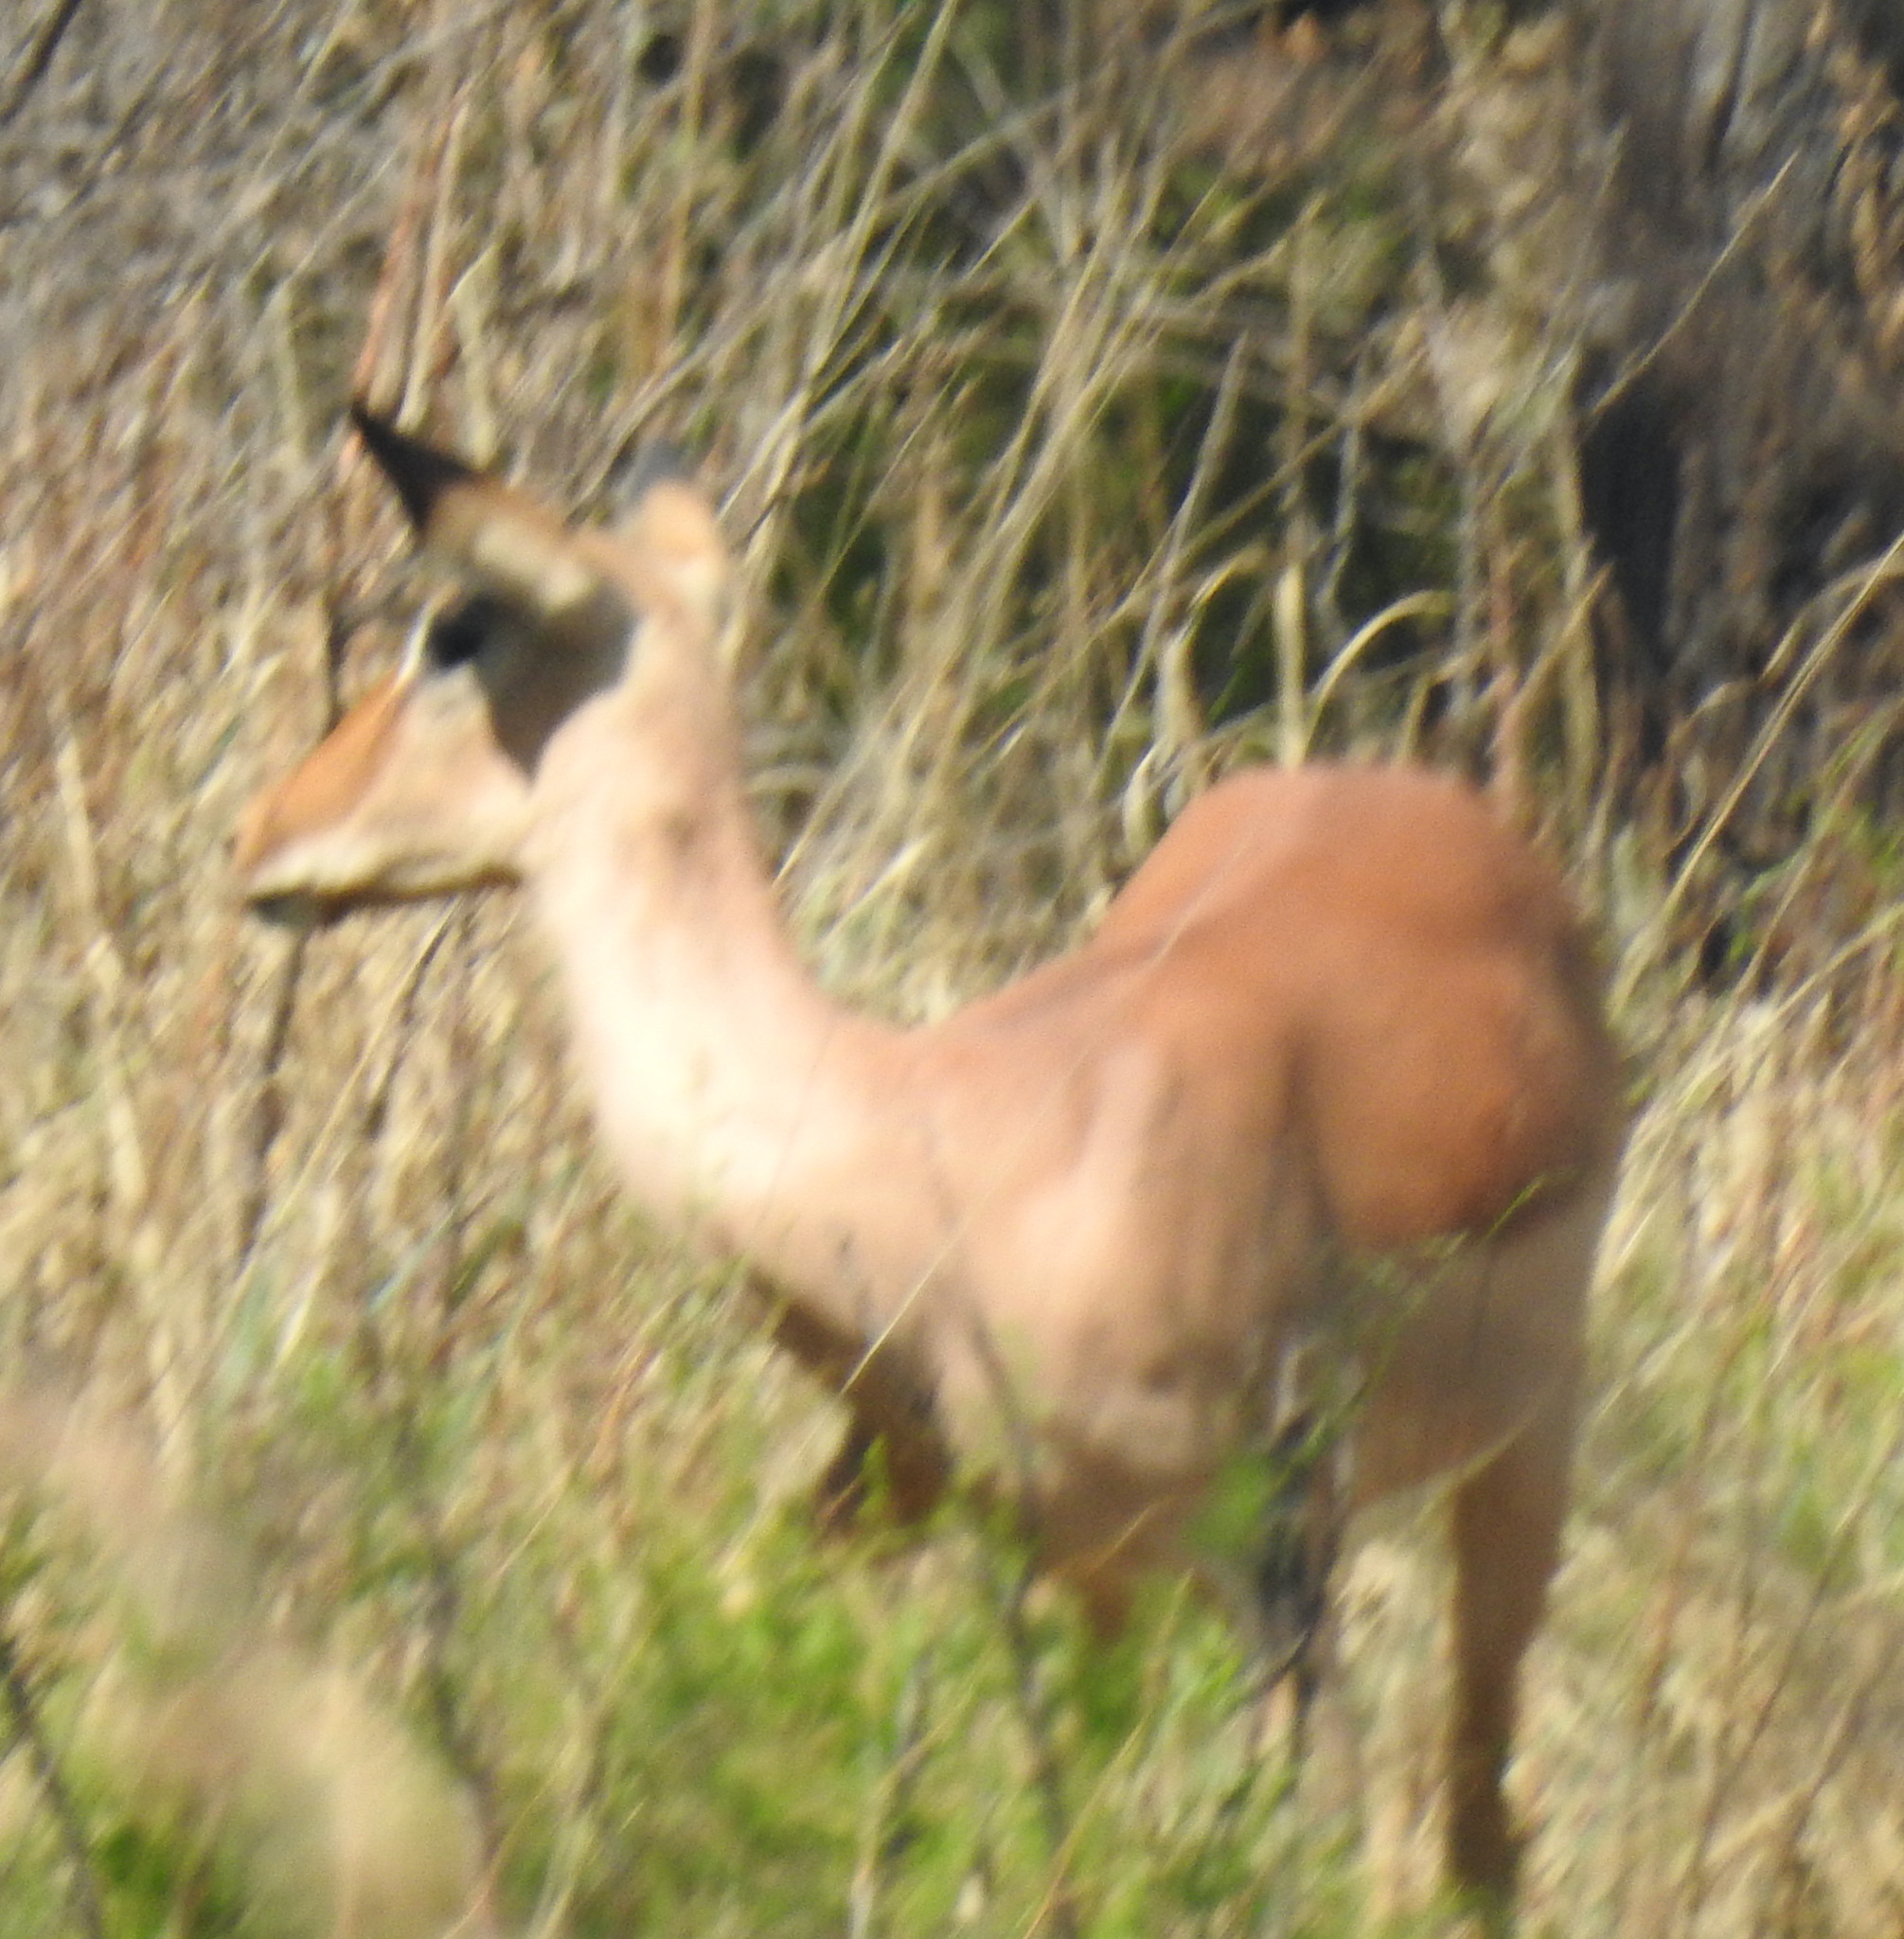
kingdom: Animalia
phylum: Chordata
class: Mammalia
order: Artiodactyla
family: Bovidae
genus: Aepyceros
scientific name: Aepyceros melampus
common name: Impala
